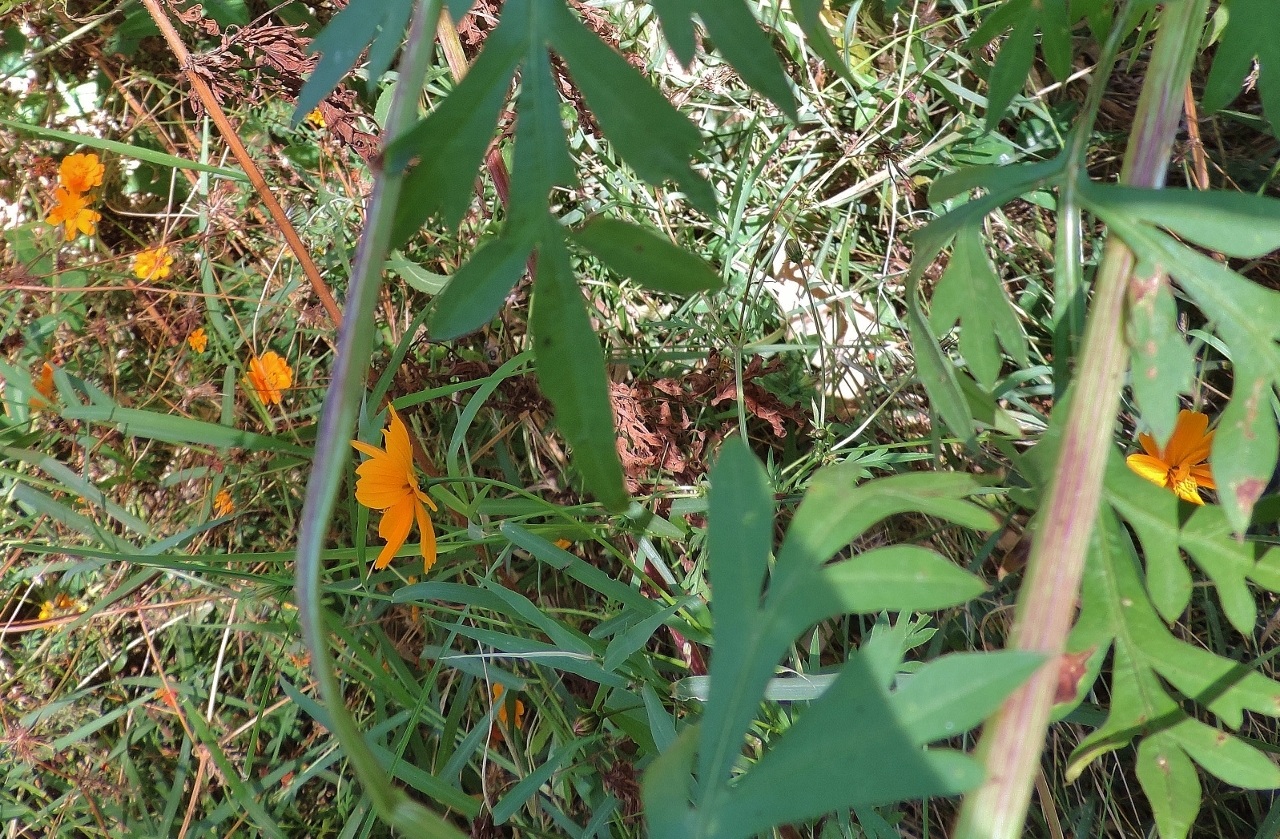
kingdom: Plantae
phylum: Tracheophyta
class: Magnoliopsida
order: Asterales
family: Asteraceae
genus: Cosmos
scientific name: Cosmos sulphureus
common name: Sulphur cosmos
